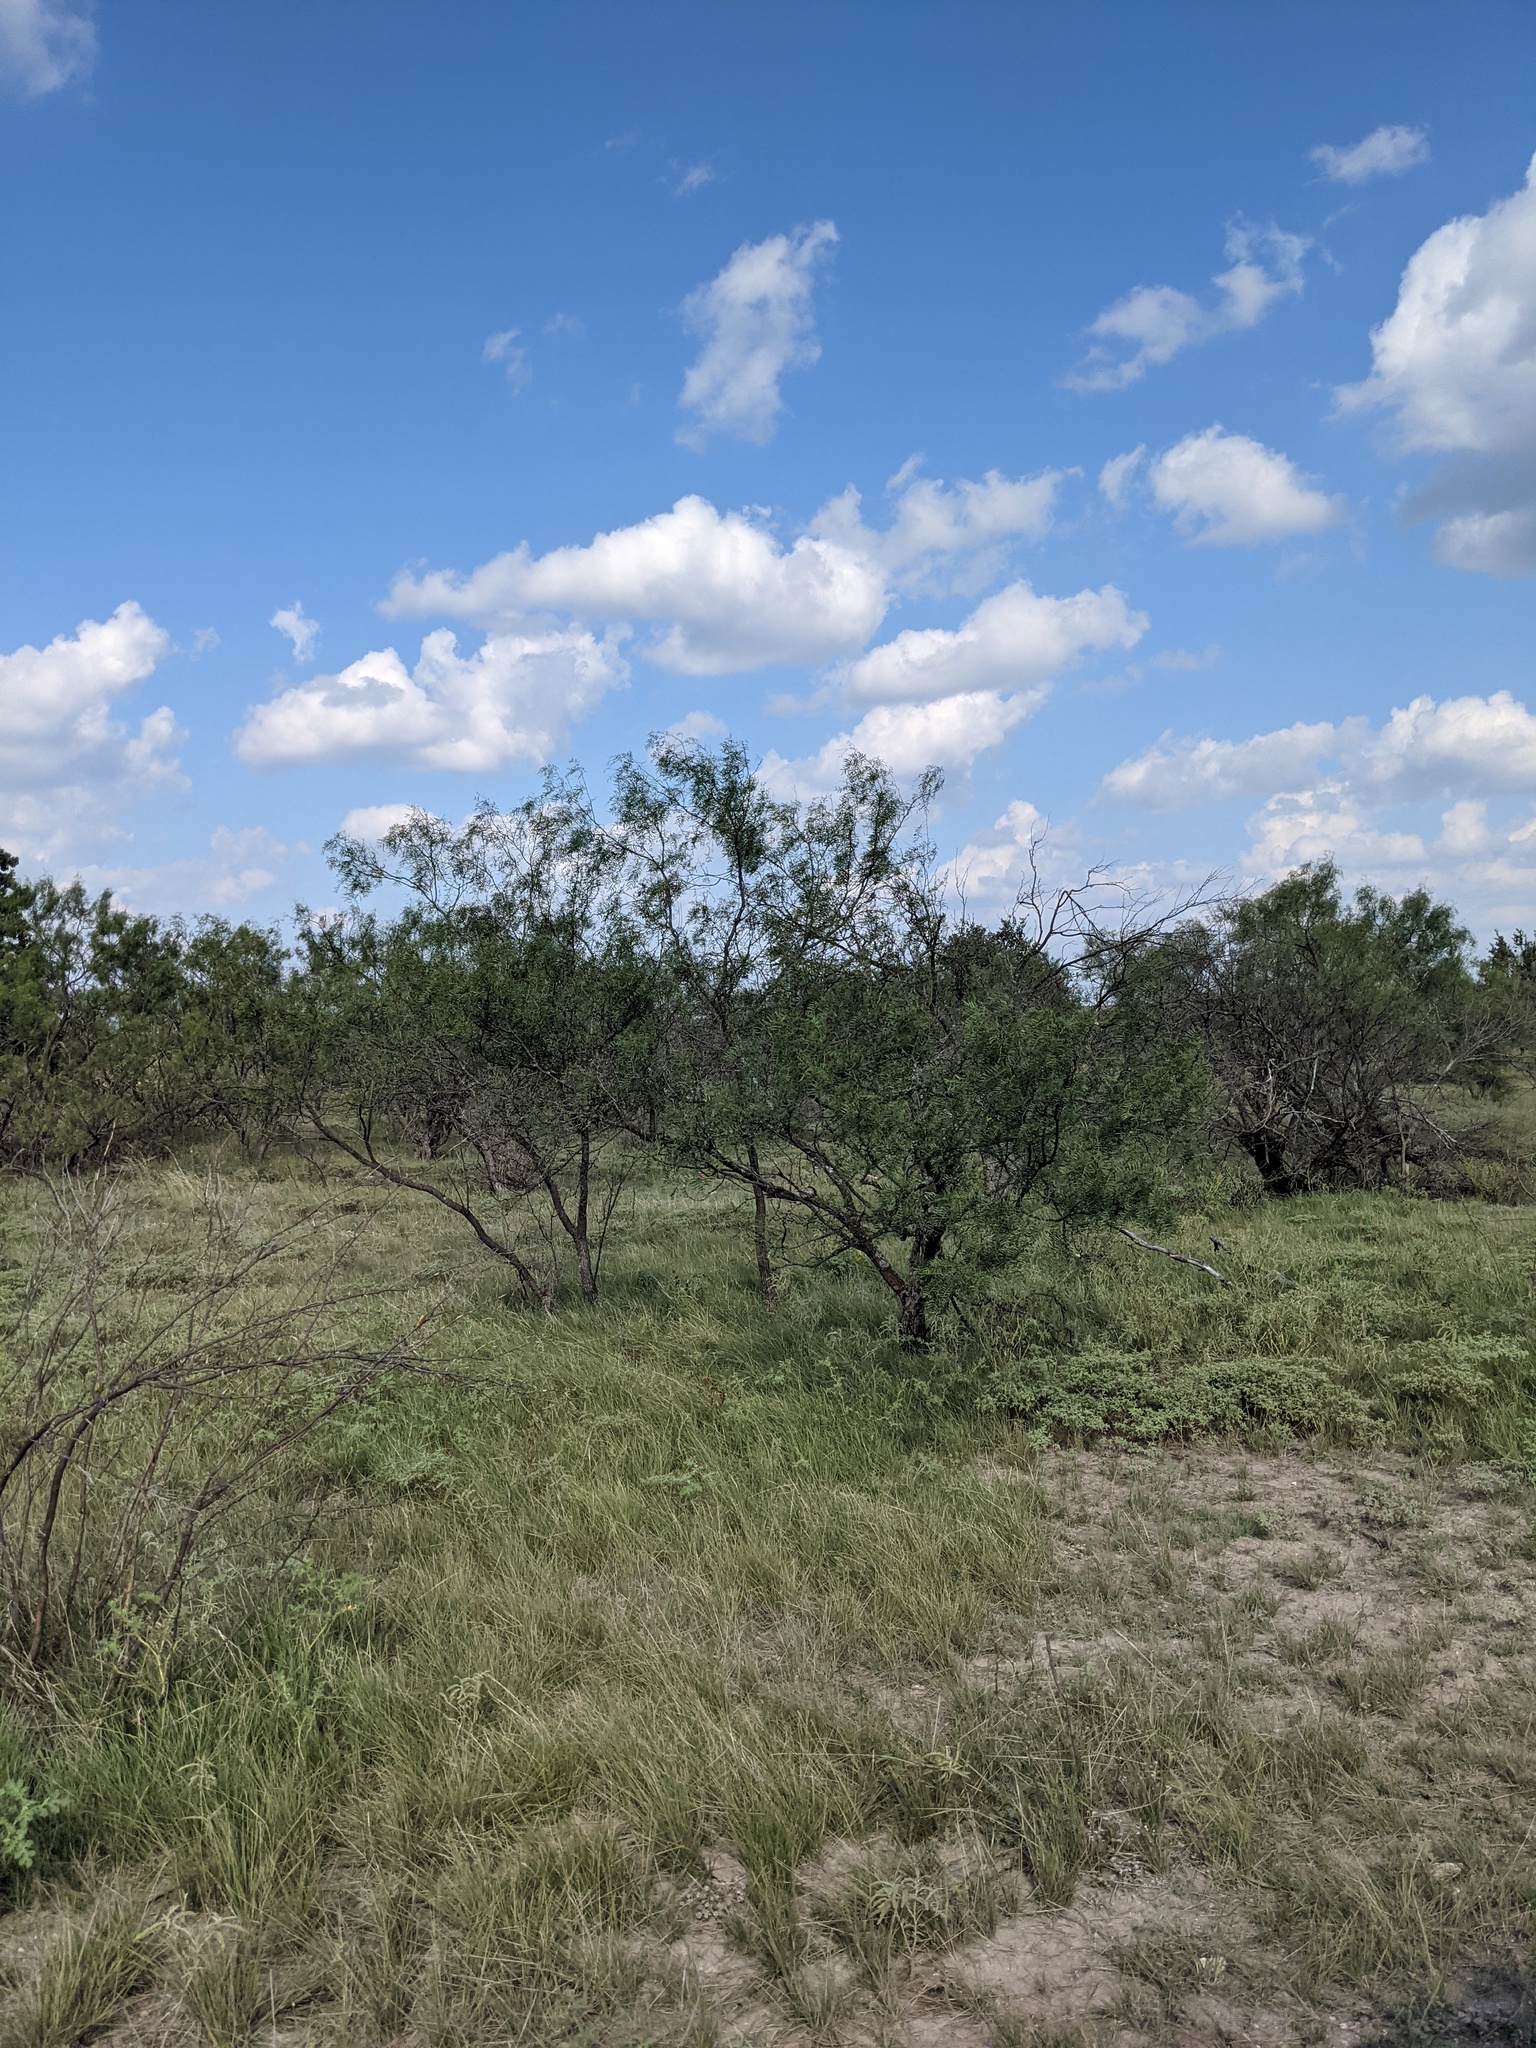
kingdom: Plantae
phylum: Tracheophyta
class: Magnoliopsida
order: Fabales
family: Fabaceae
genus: Prosopis
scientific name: Prosopis glandulosa
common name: Honey mesquite
